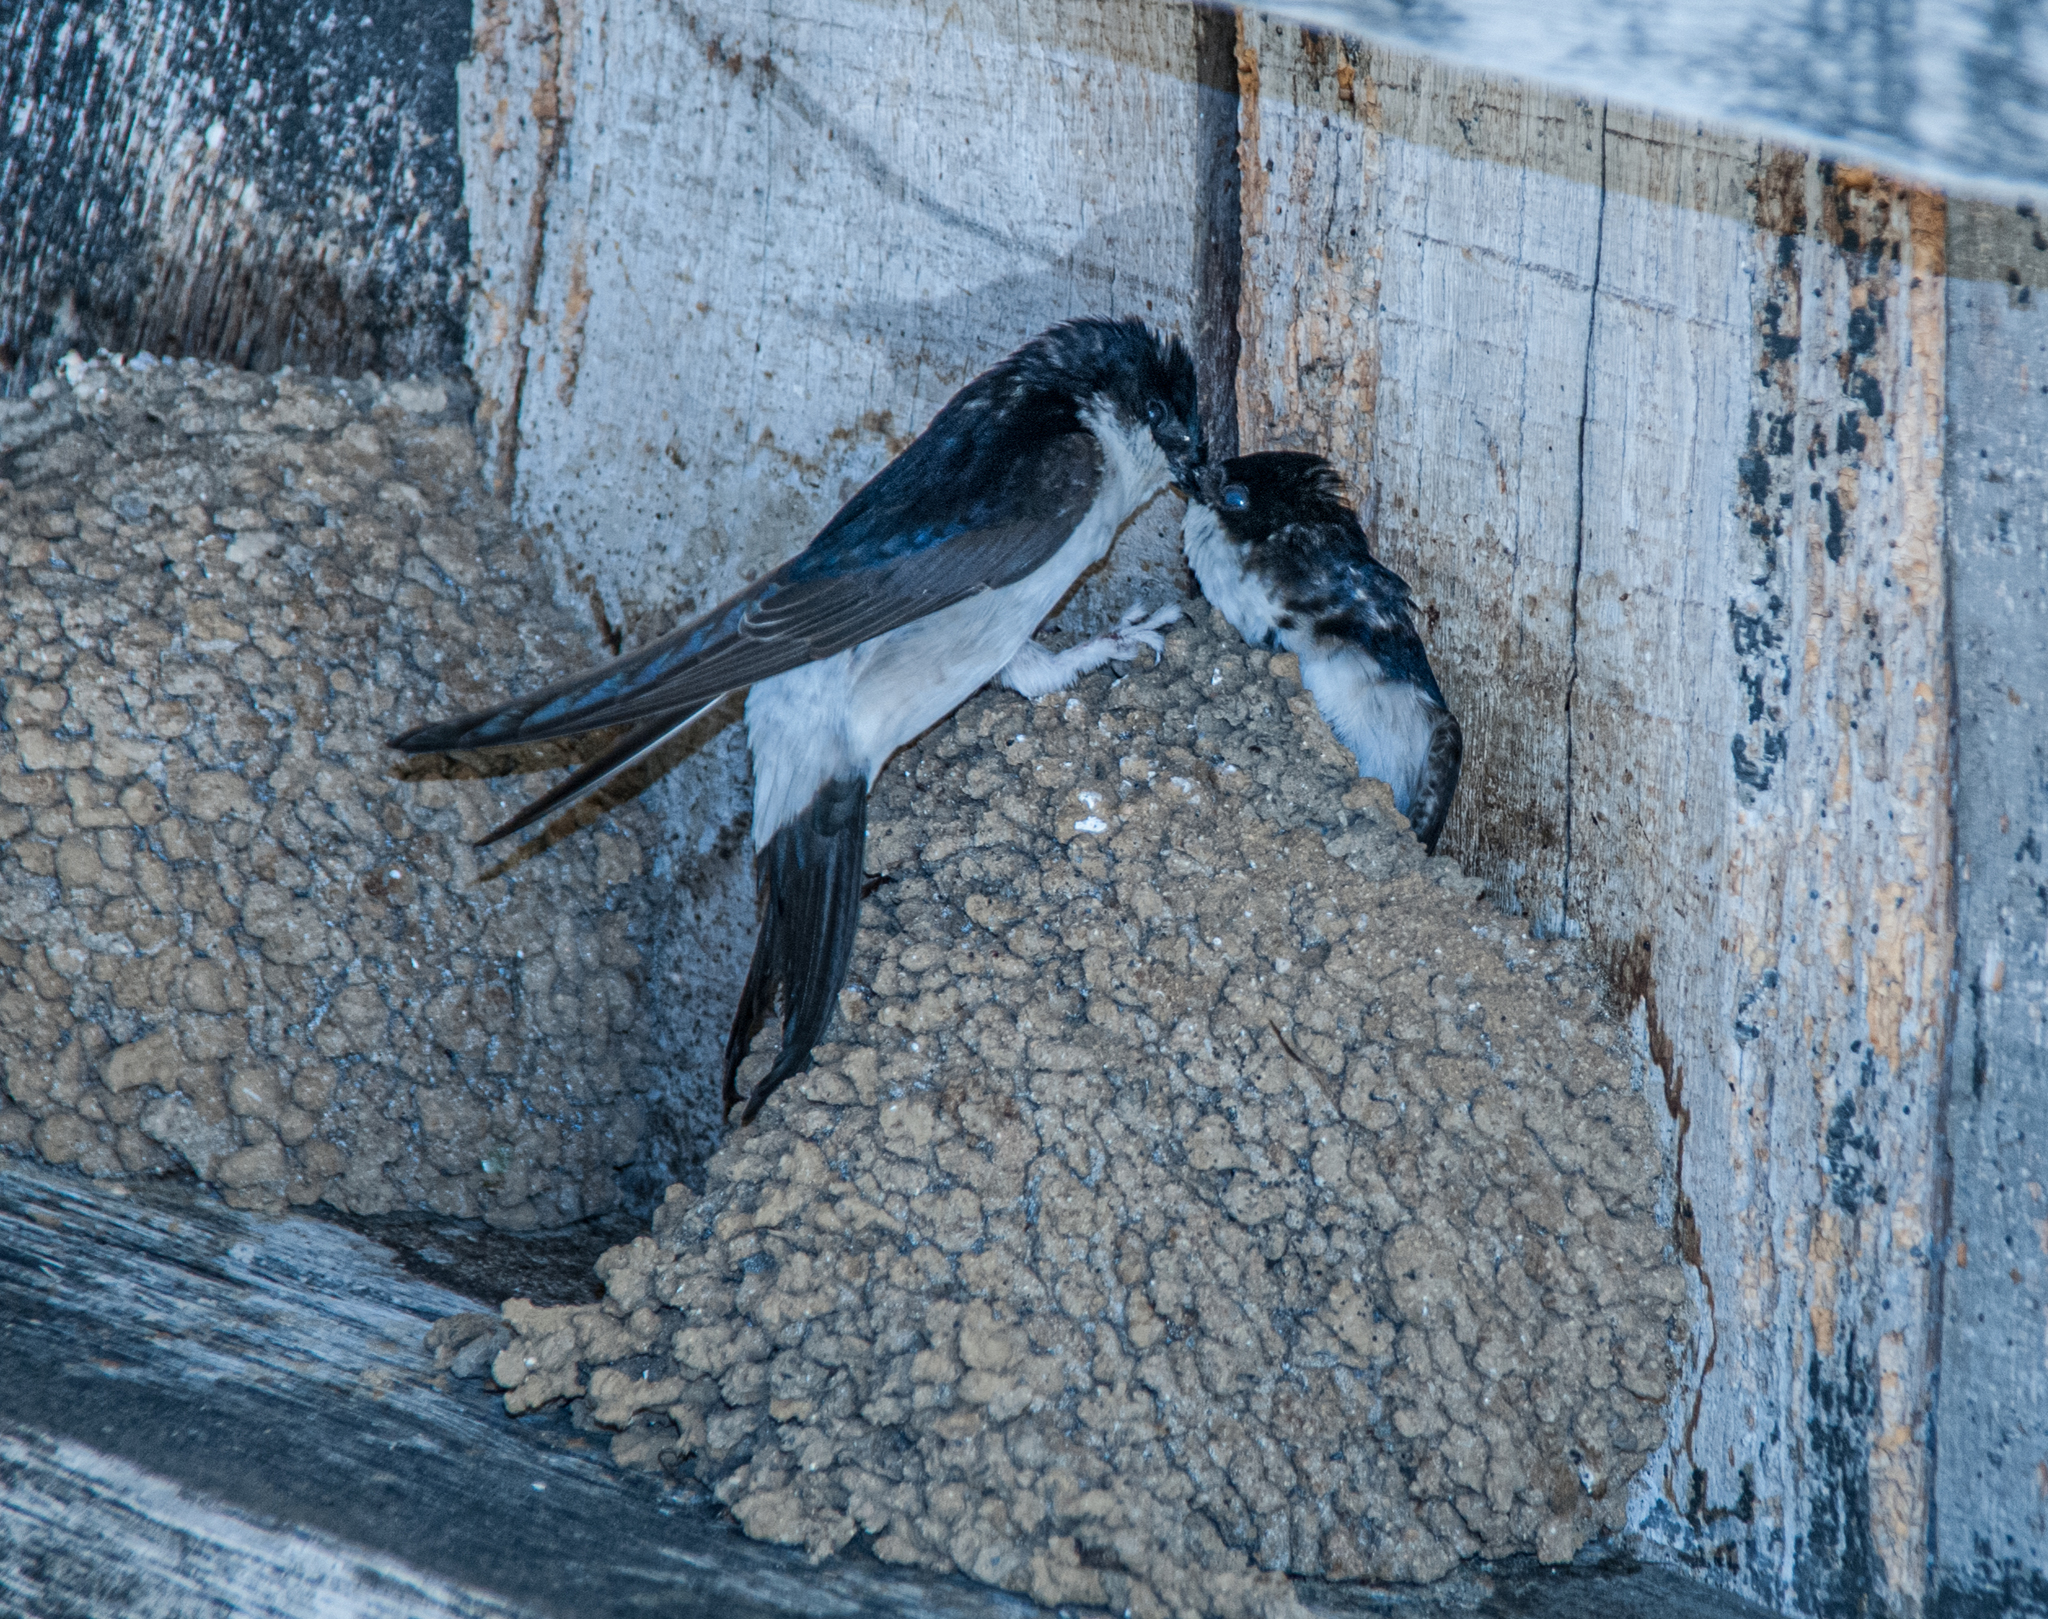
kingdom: Animalia
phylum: Chordata
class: Aves
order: Passeriformes
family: Hirundinidae
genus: Delichon
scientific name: Delichon urbicum
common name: Common house martin
